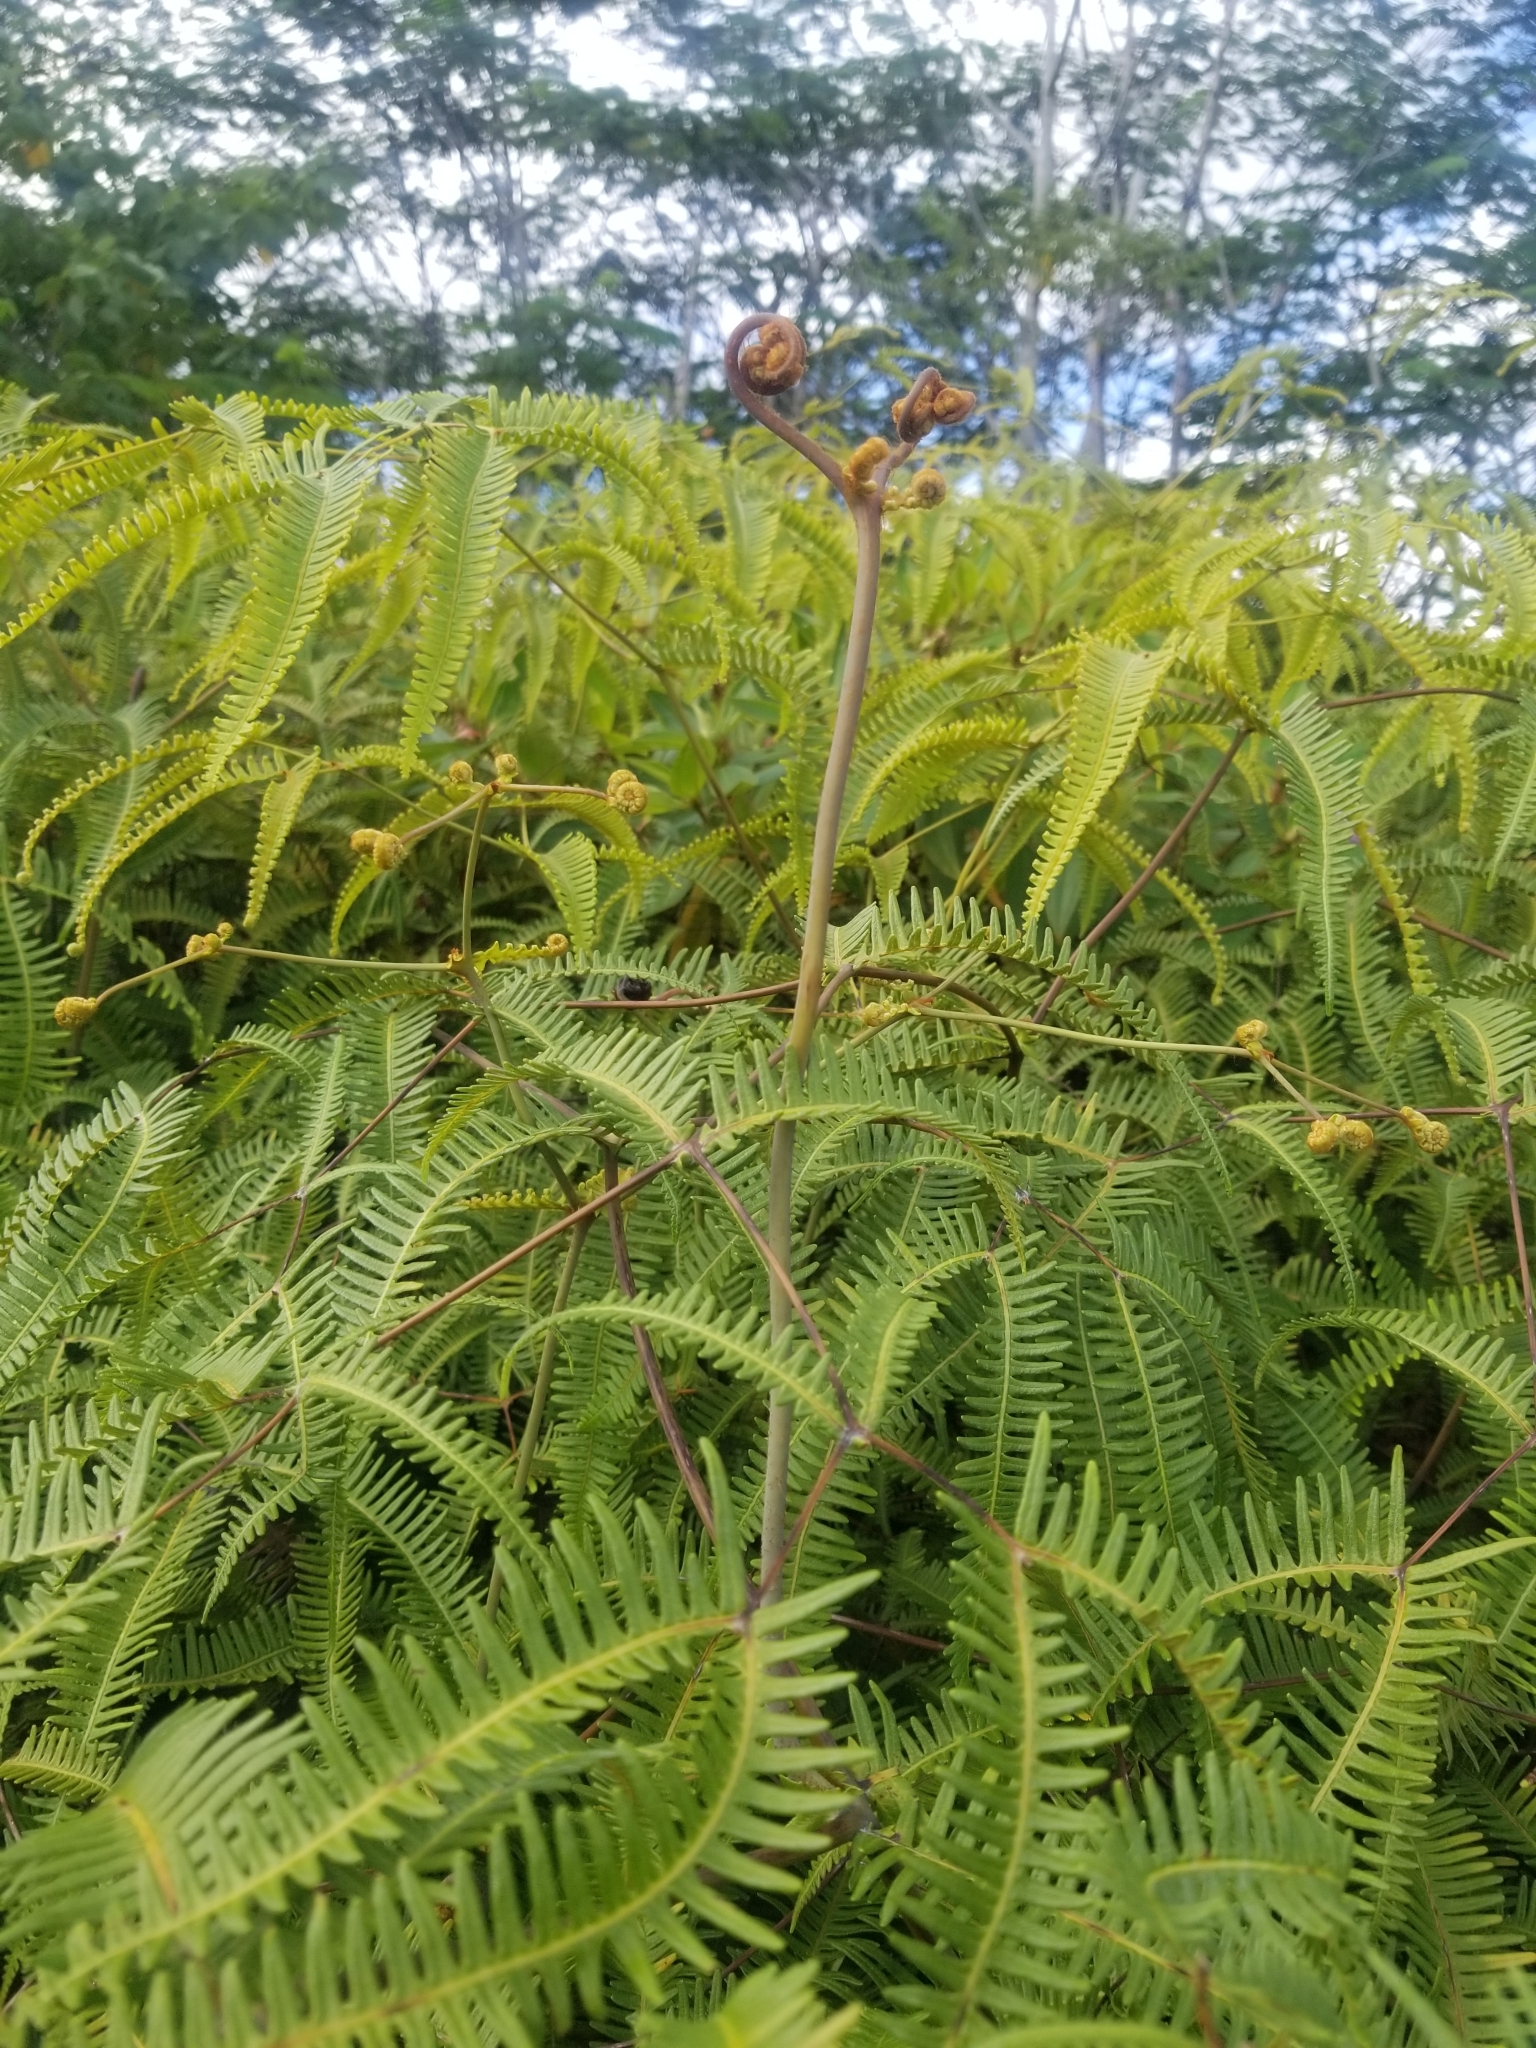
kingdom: Plantae
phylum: Tracheophyta
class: Polypodiopsida
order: Gleicheniales
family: Gleicheniaceae
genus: Dicranopteris
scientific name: Dicranopteris linearis
